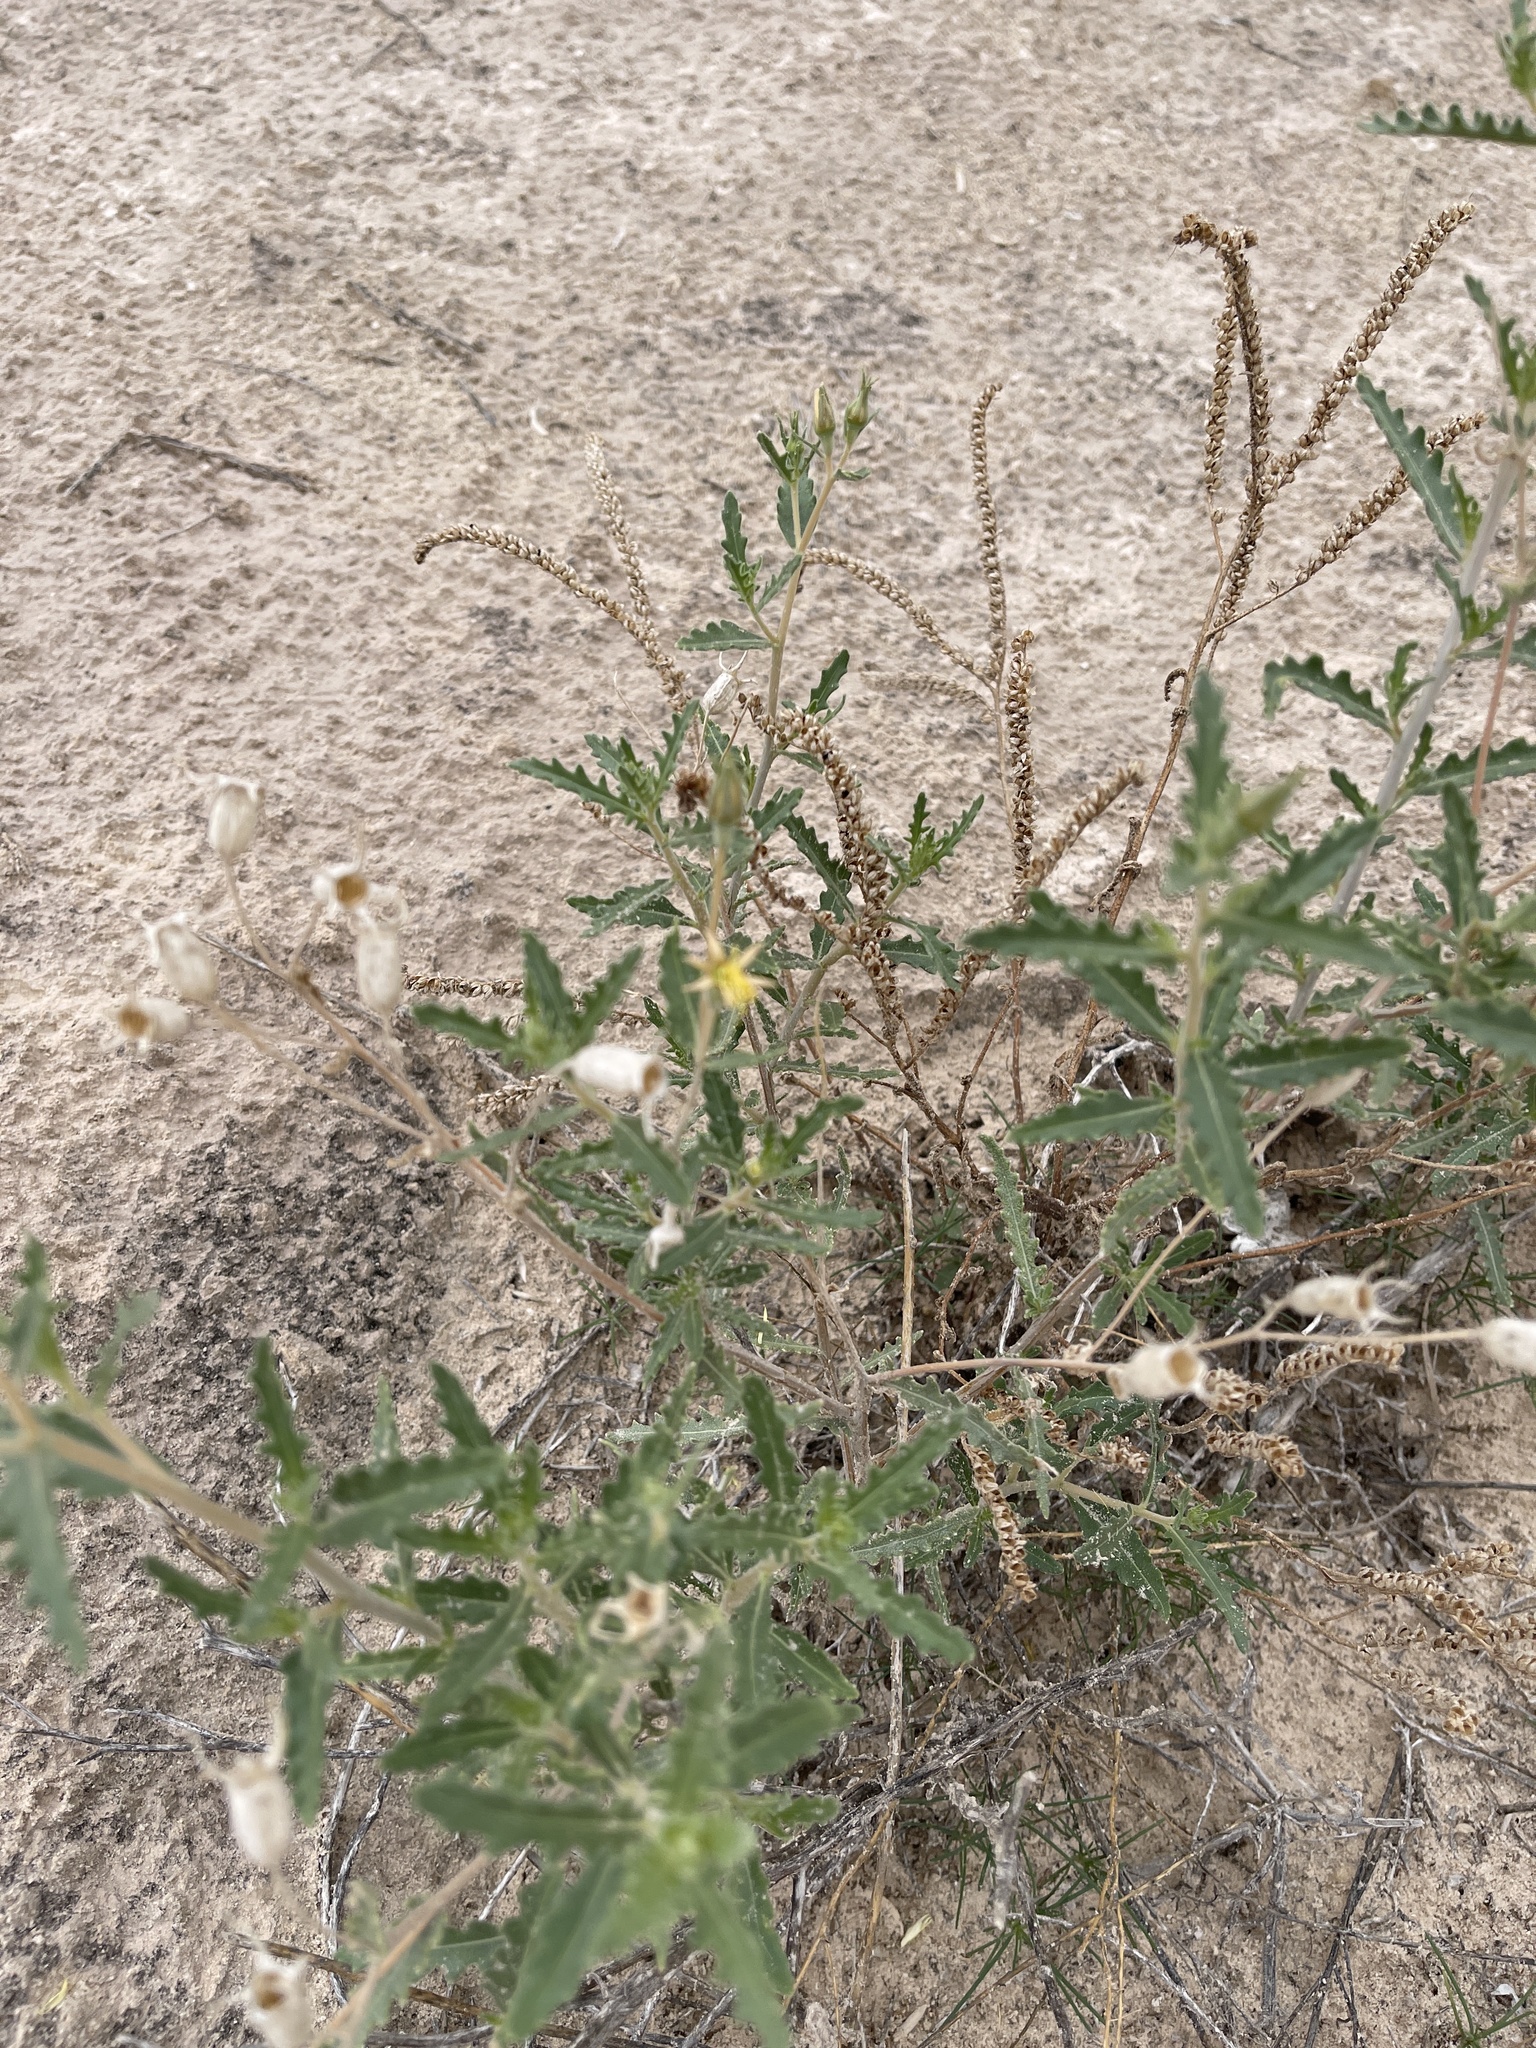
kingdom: Plantae
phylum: Tracheophyta
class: Magnoliopsida
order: Cornales
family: Loasaceae
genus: Mentzelia
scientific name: Mentzelia procera
